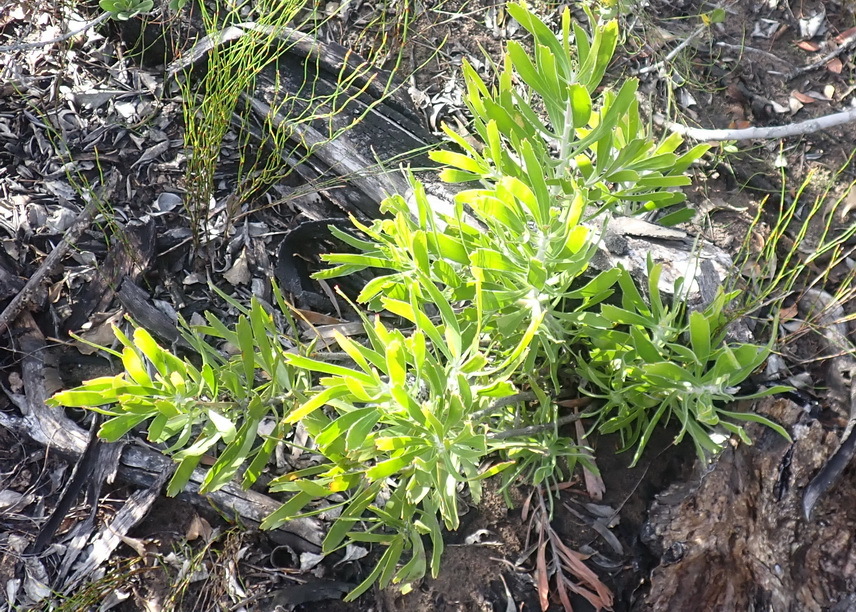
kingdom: Plantae
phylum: Tracheophyta
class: Magnoliopsida
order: Proteales
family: Proteaceae
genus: Leucospermum
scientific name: Leucospermum cuneiforme
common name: Common pincushion
